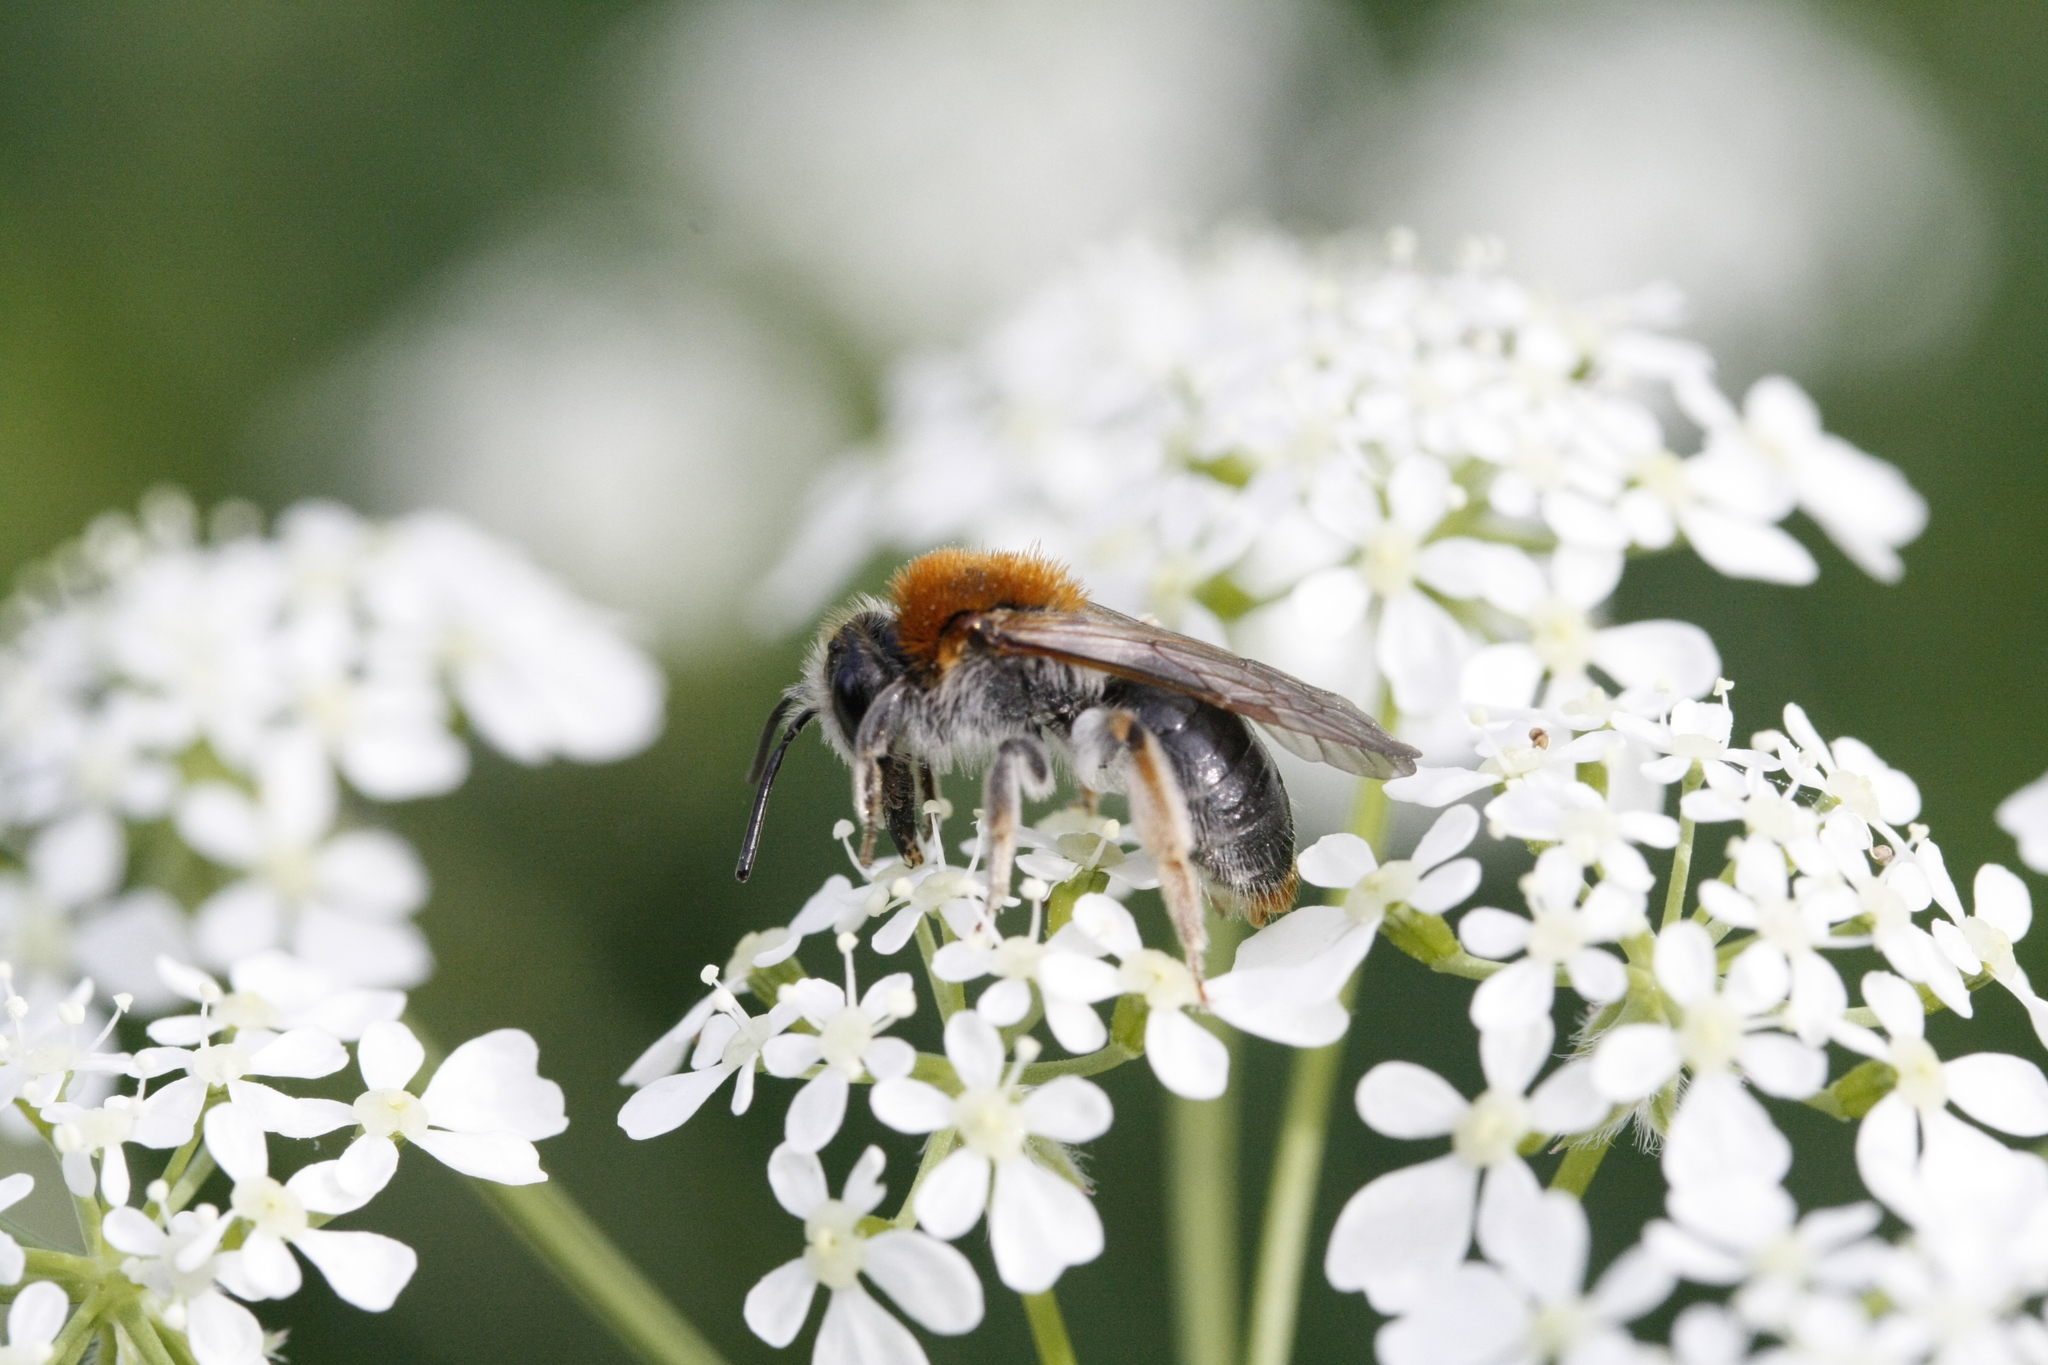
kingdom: Animalia
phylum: Arthropoda
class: Insecta
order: Hymenoptera
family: Andrenidae
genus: Andrena
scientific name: Andrena haemorrhoa
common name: Early mining bee
